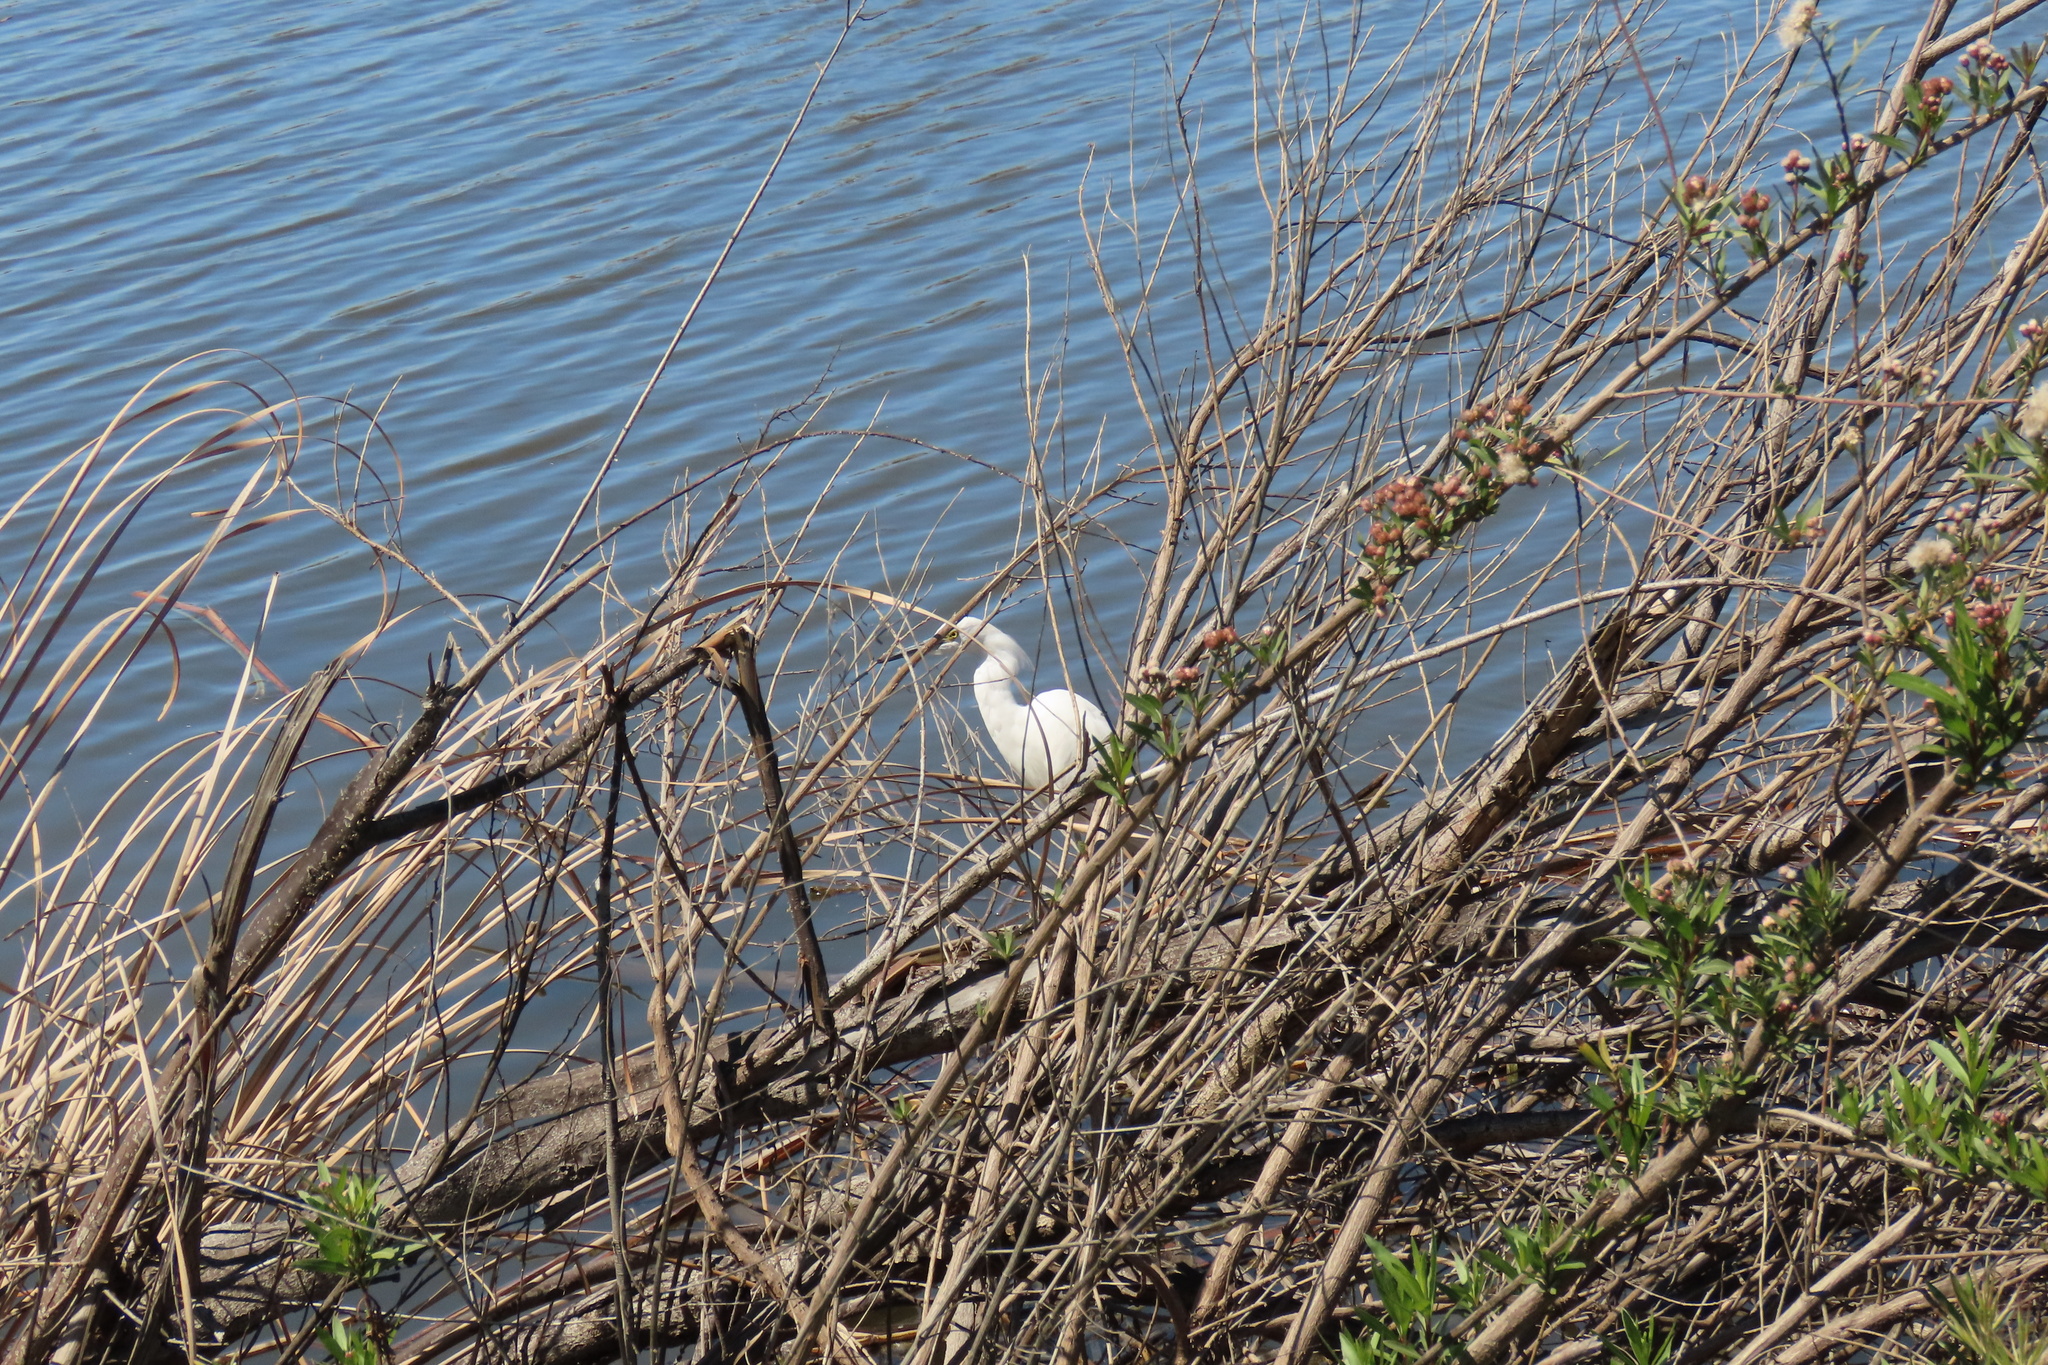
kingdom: Animalia
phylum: Chordata
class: Aves
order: Pelecaniformes
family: Ardeidae
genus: Egretta
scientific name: Egretta thula
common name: Snowy egret
